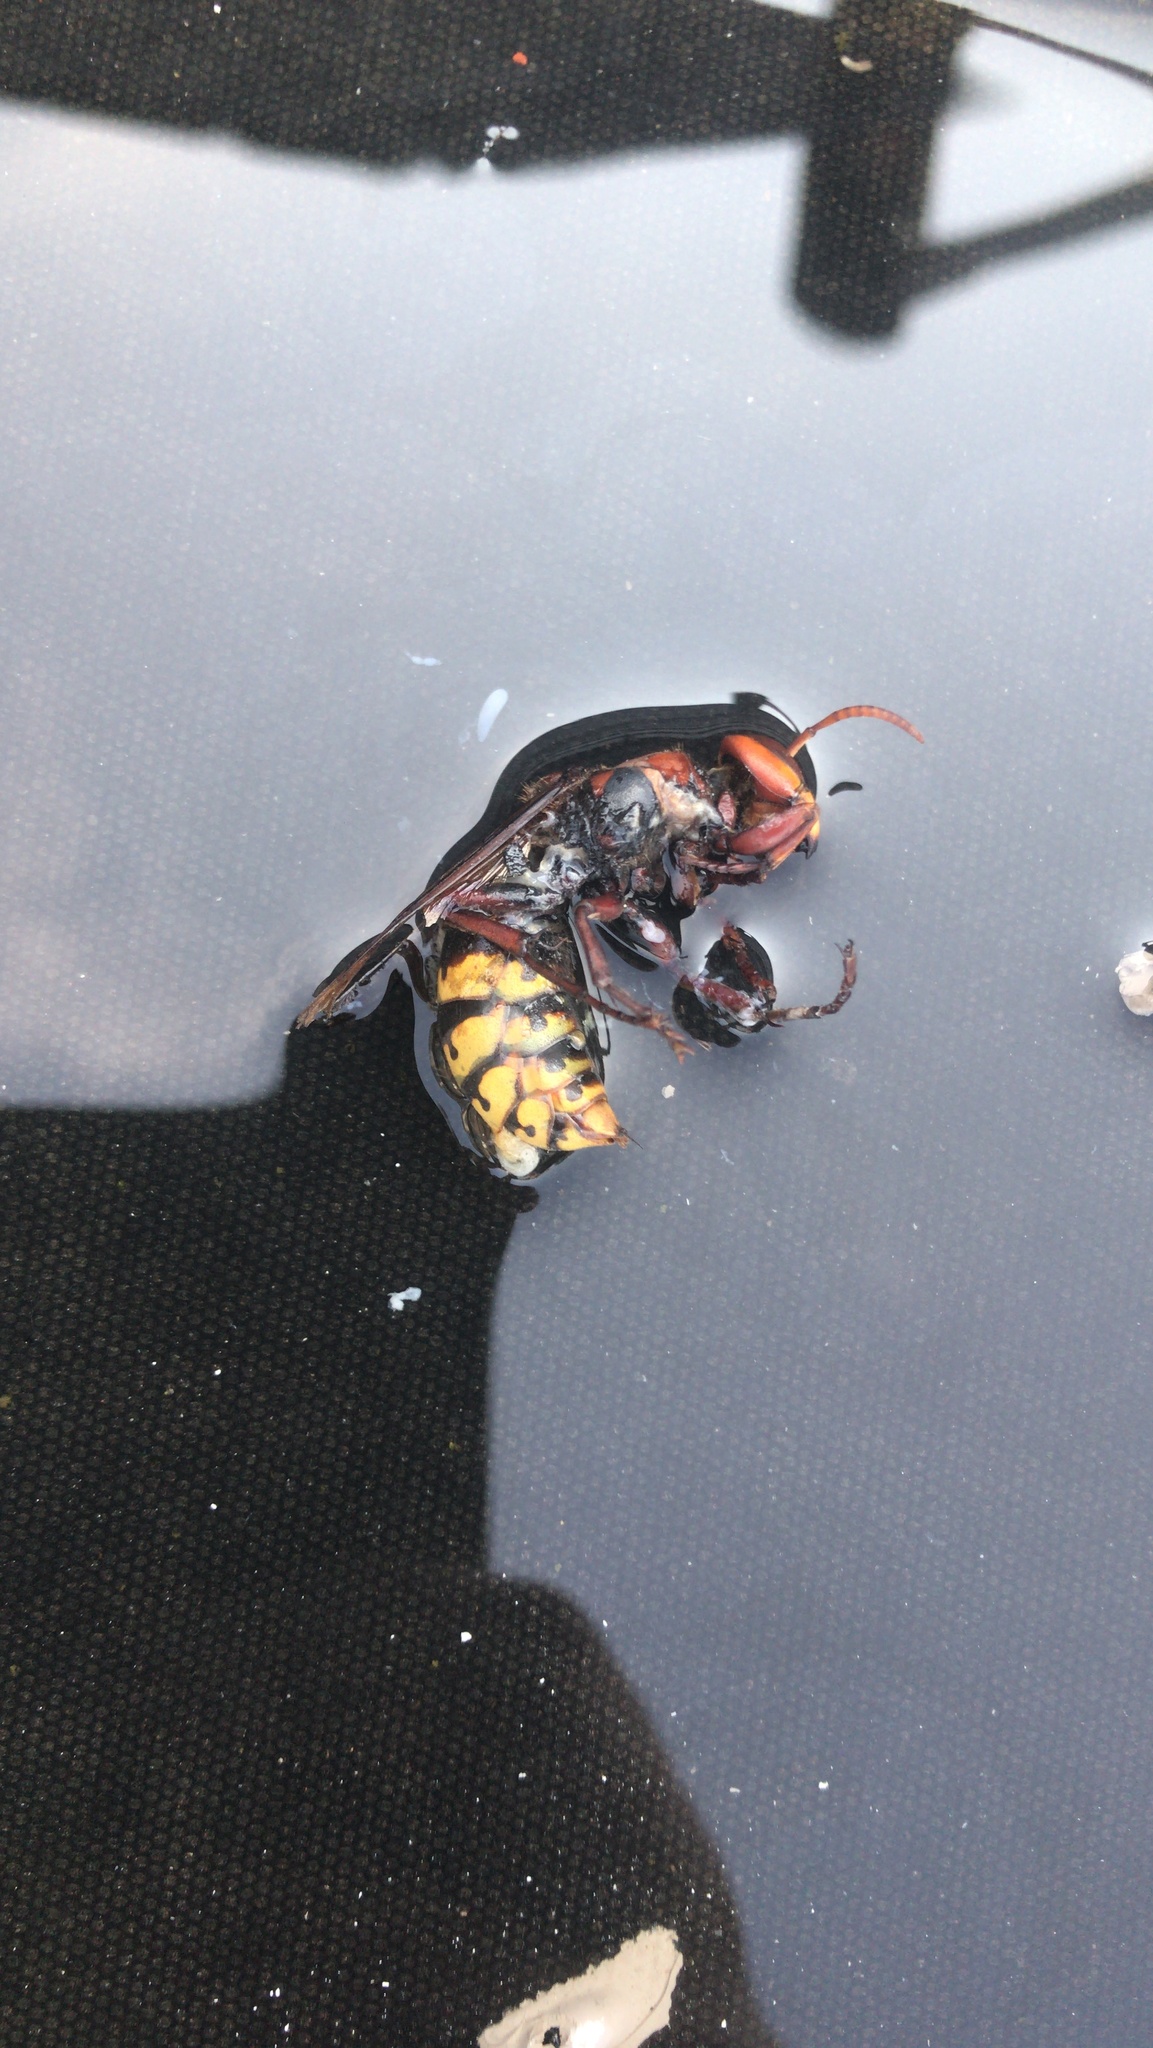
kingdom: Animalia
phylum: Arthropoda
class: Insecta
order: Hymenoptera
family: Vespidae
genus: Vespa
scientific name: Vespa crabro
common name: Hornet
